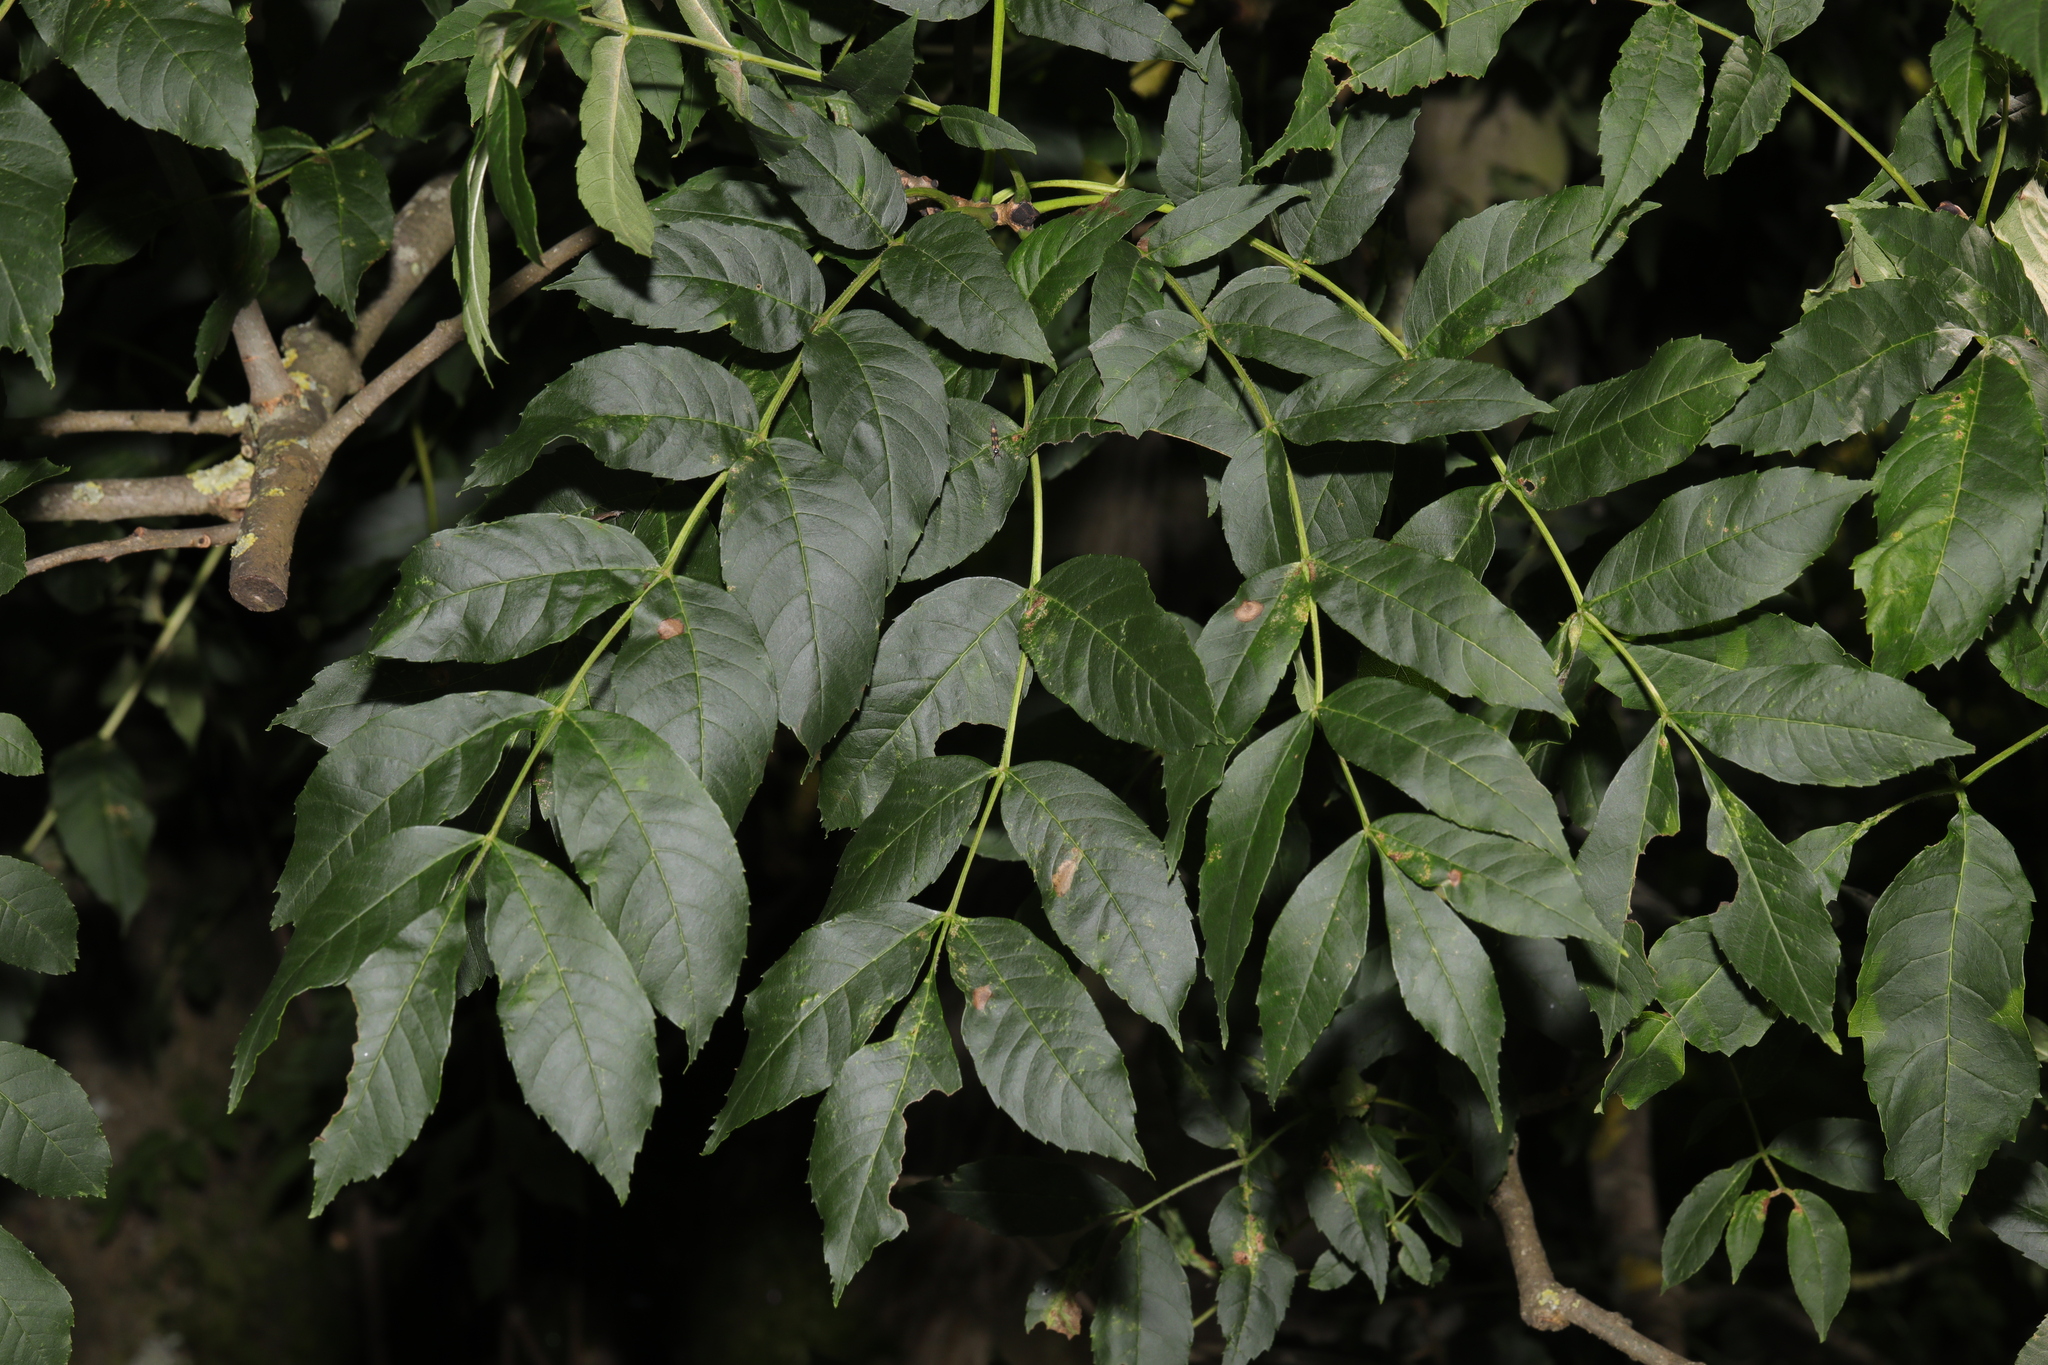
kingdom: Plantae
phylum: Tracheophyta
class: Magnoliopsida
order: Lamiales
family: Oleaceae
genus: Fraxinus
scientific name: Fraxinus excelsior
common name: European ash
